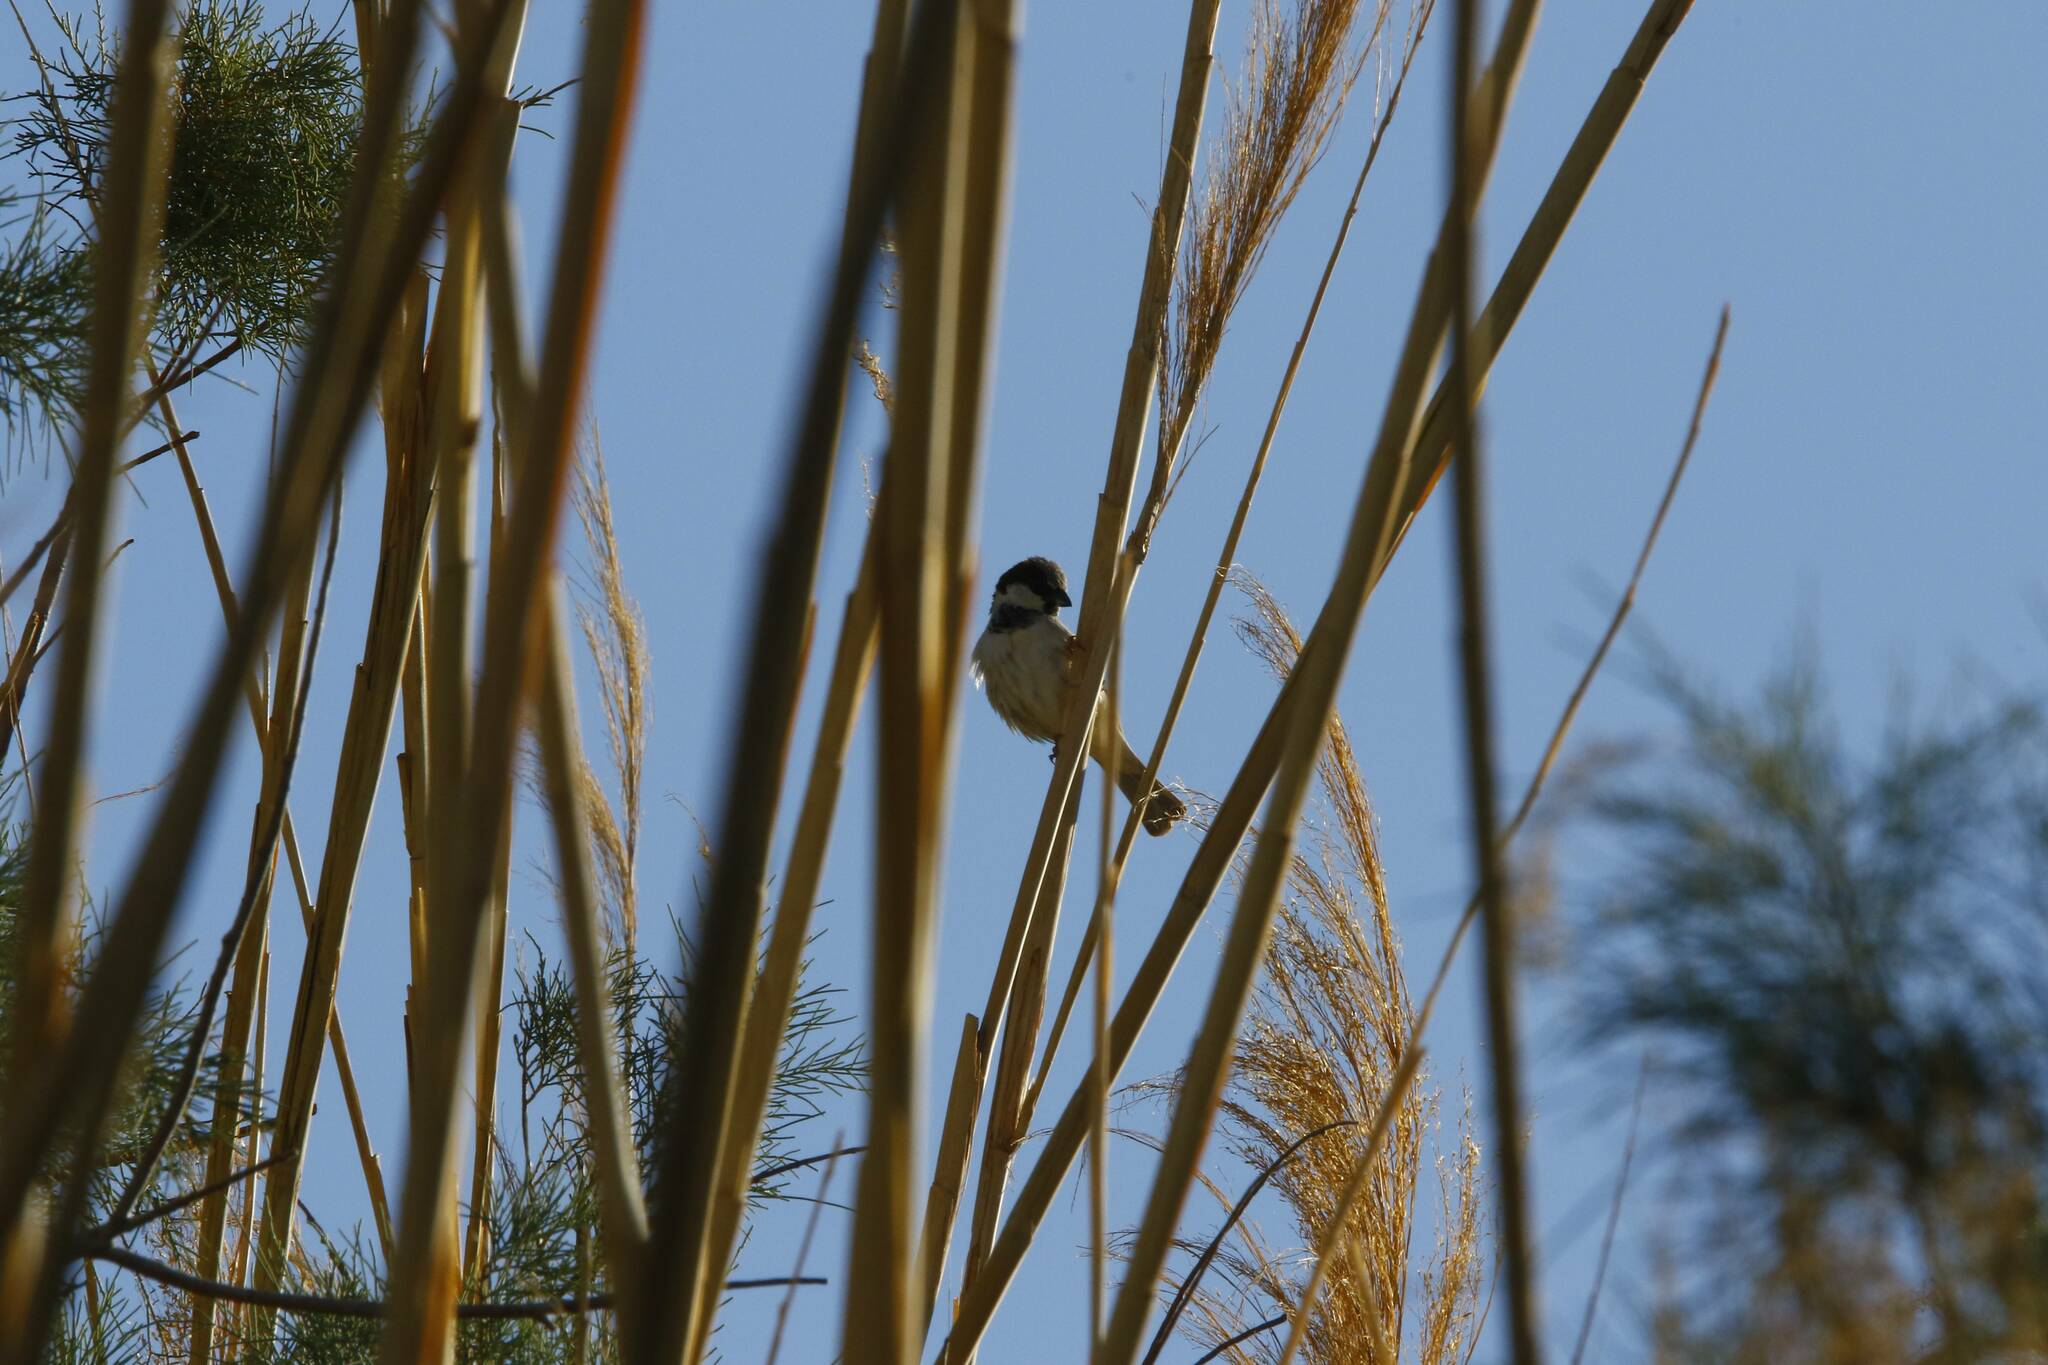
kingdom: Animalia
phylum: Chordata
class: Aves
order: Passeriformes
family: Passeridae
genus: Passer
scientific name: Passer domesticus
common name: House sparrow
